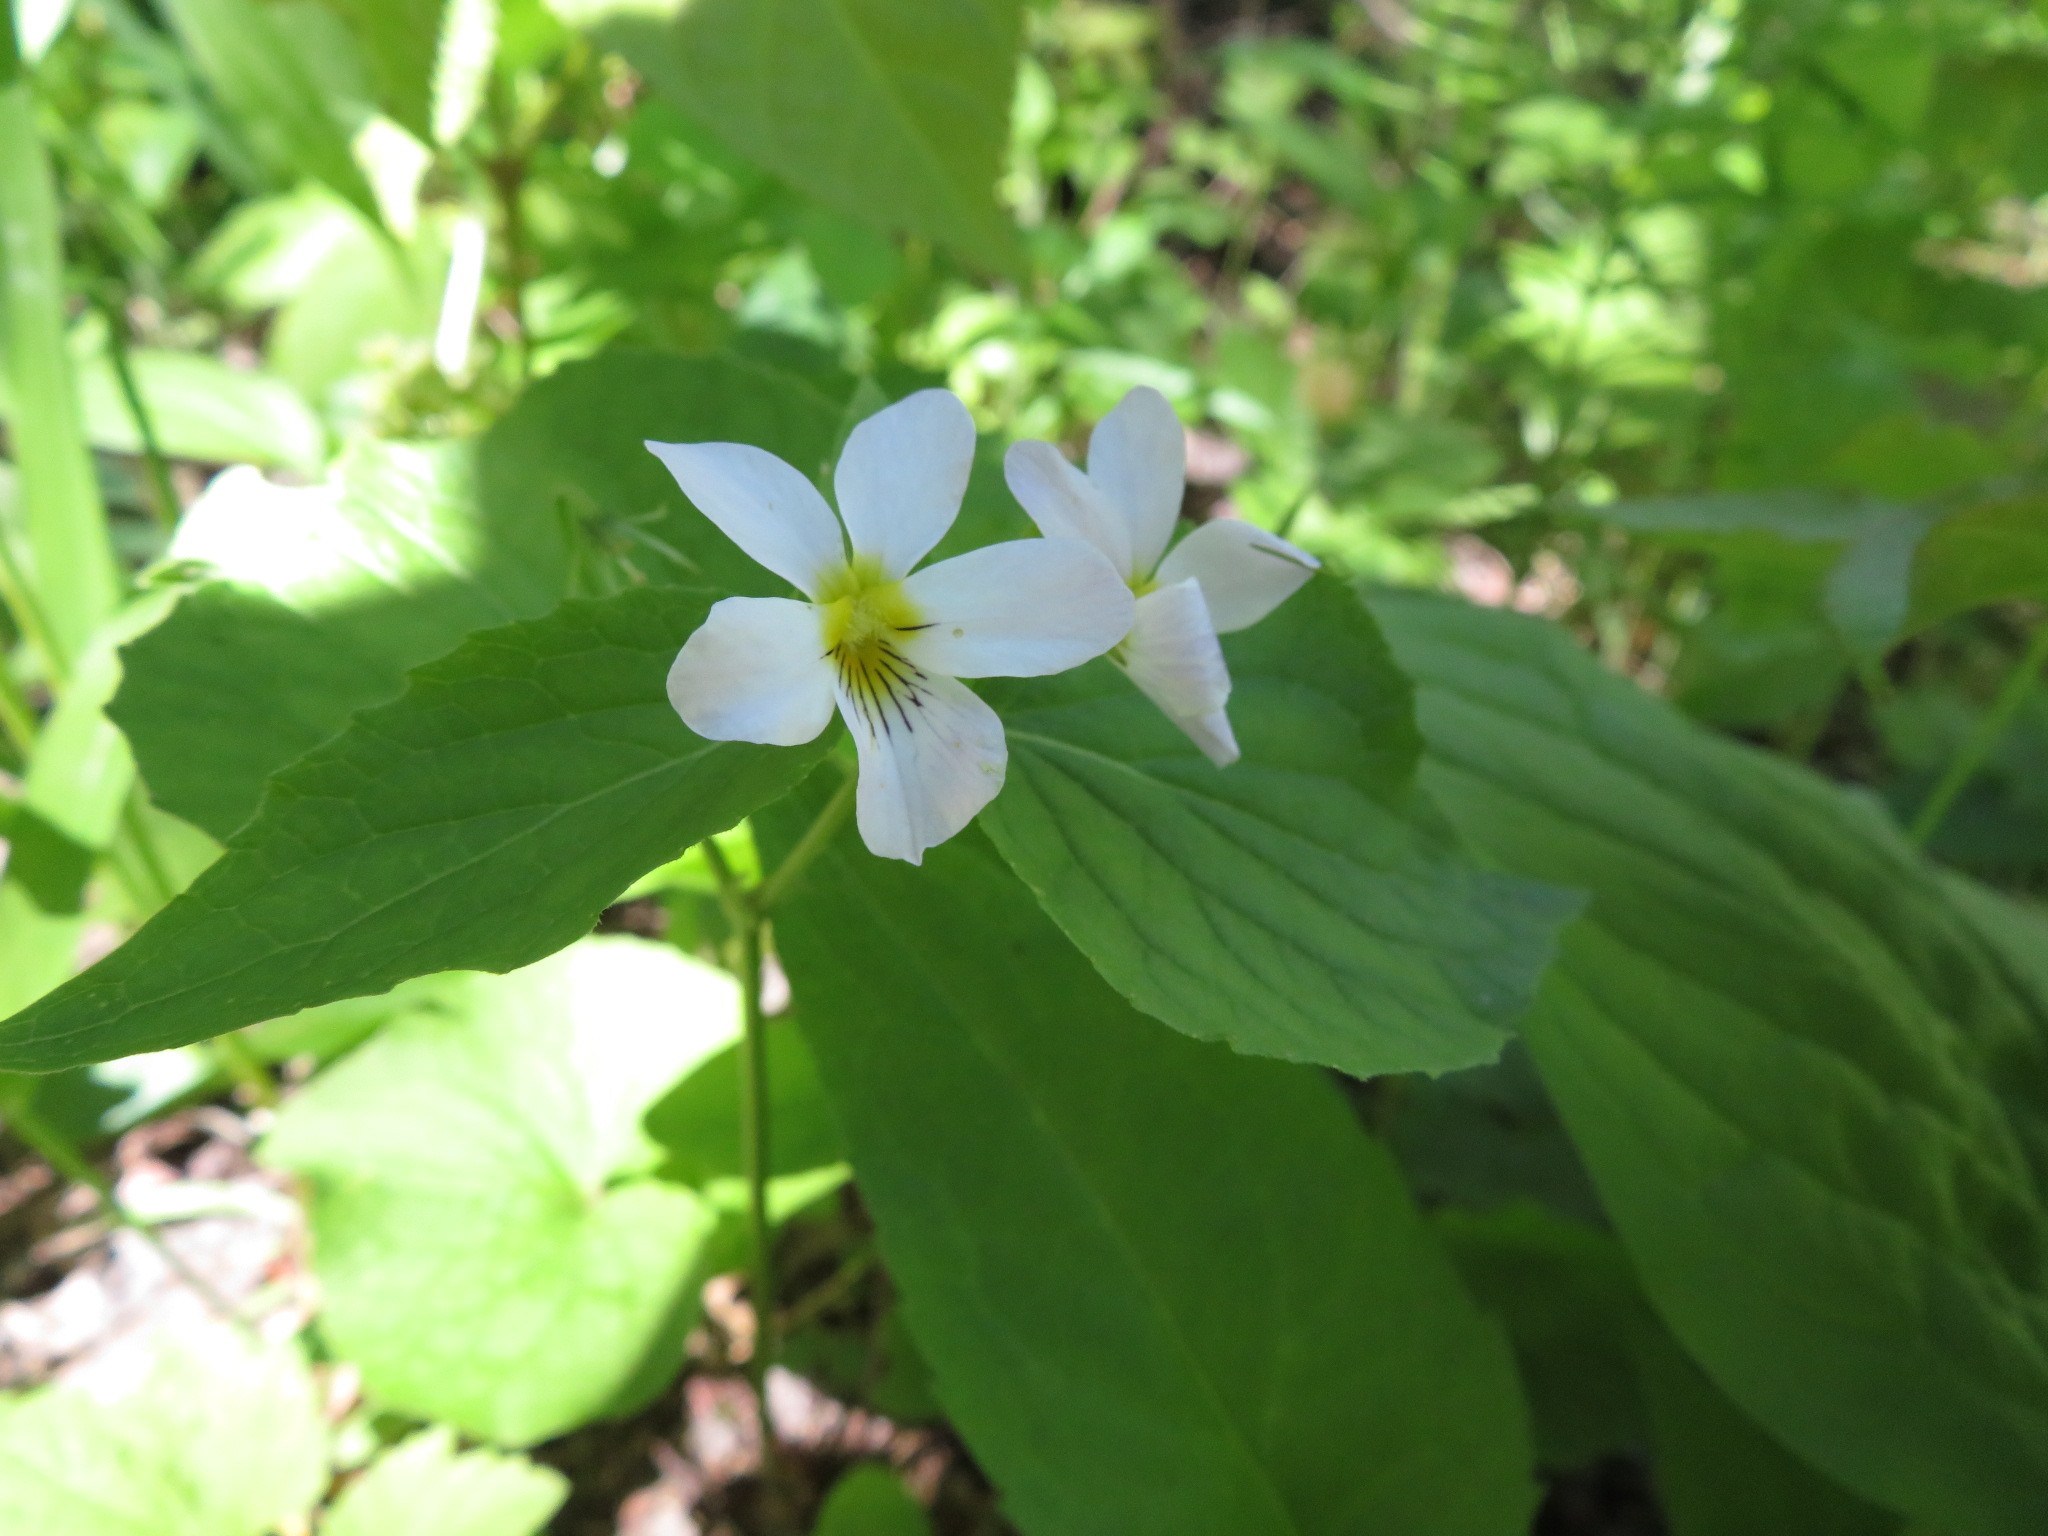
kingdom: Plantae
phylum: Tracheophyta
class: Magnoliopsida
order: Malpighiales
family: Violaceae
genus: Viola
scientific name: Viola canadensis
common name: Canada violet
